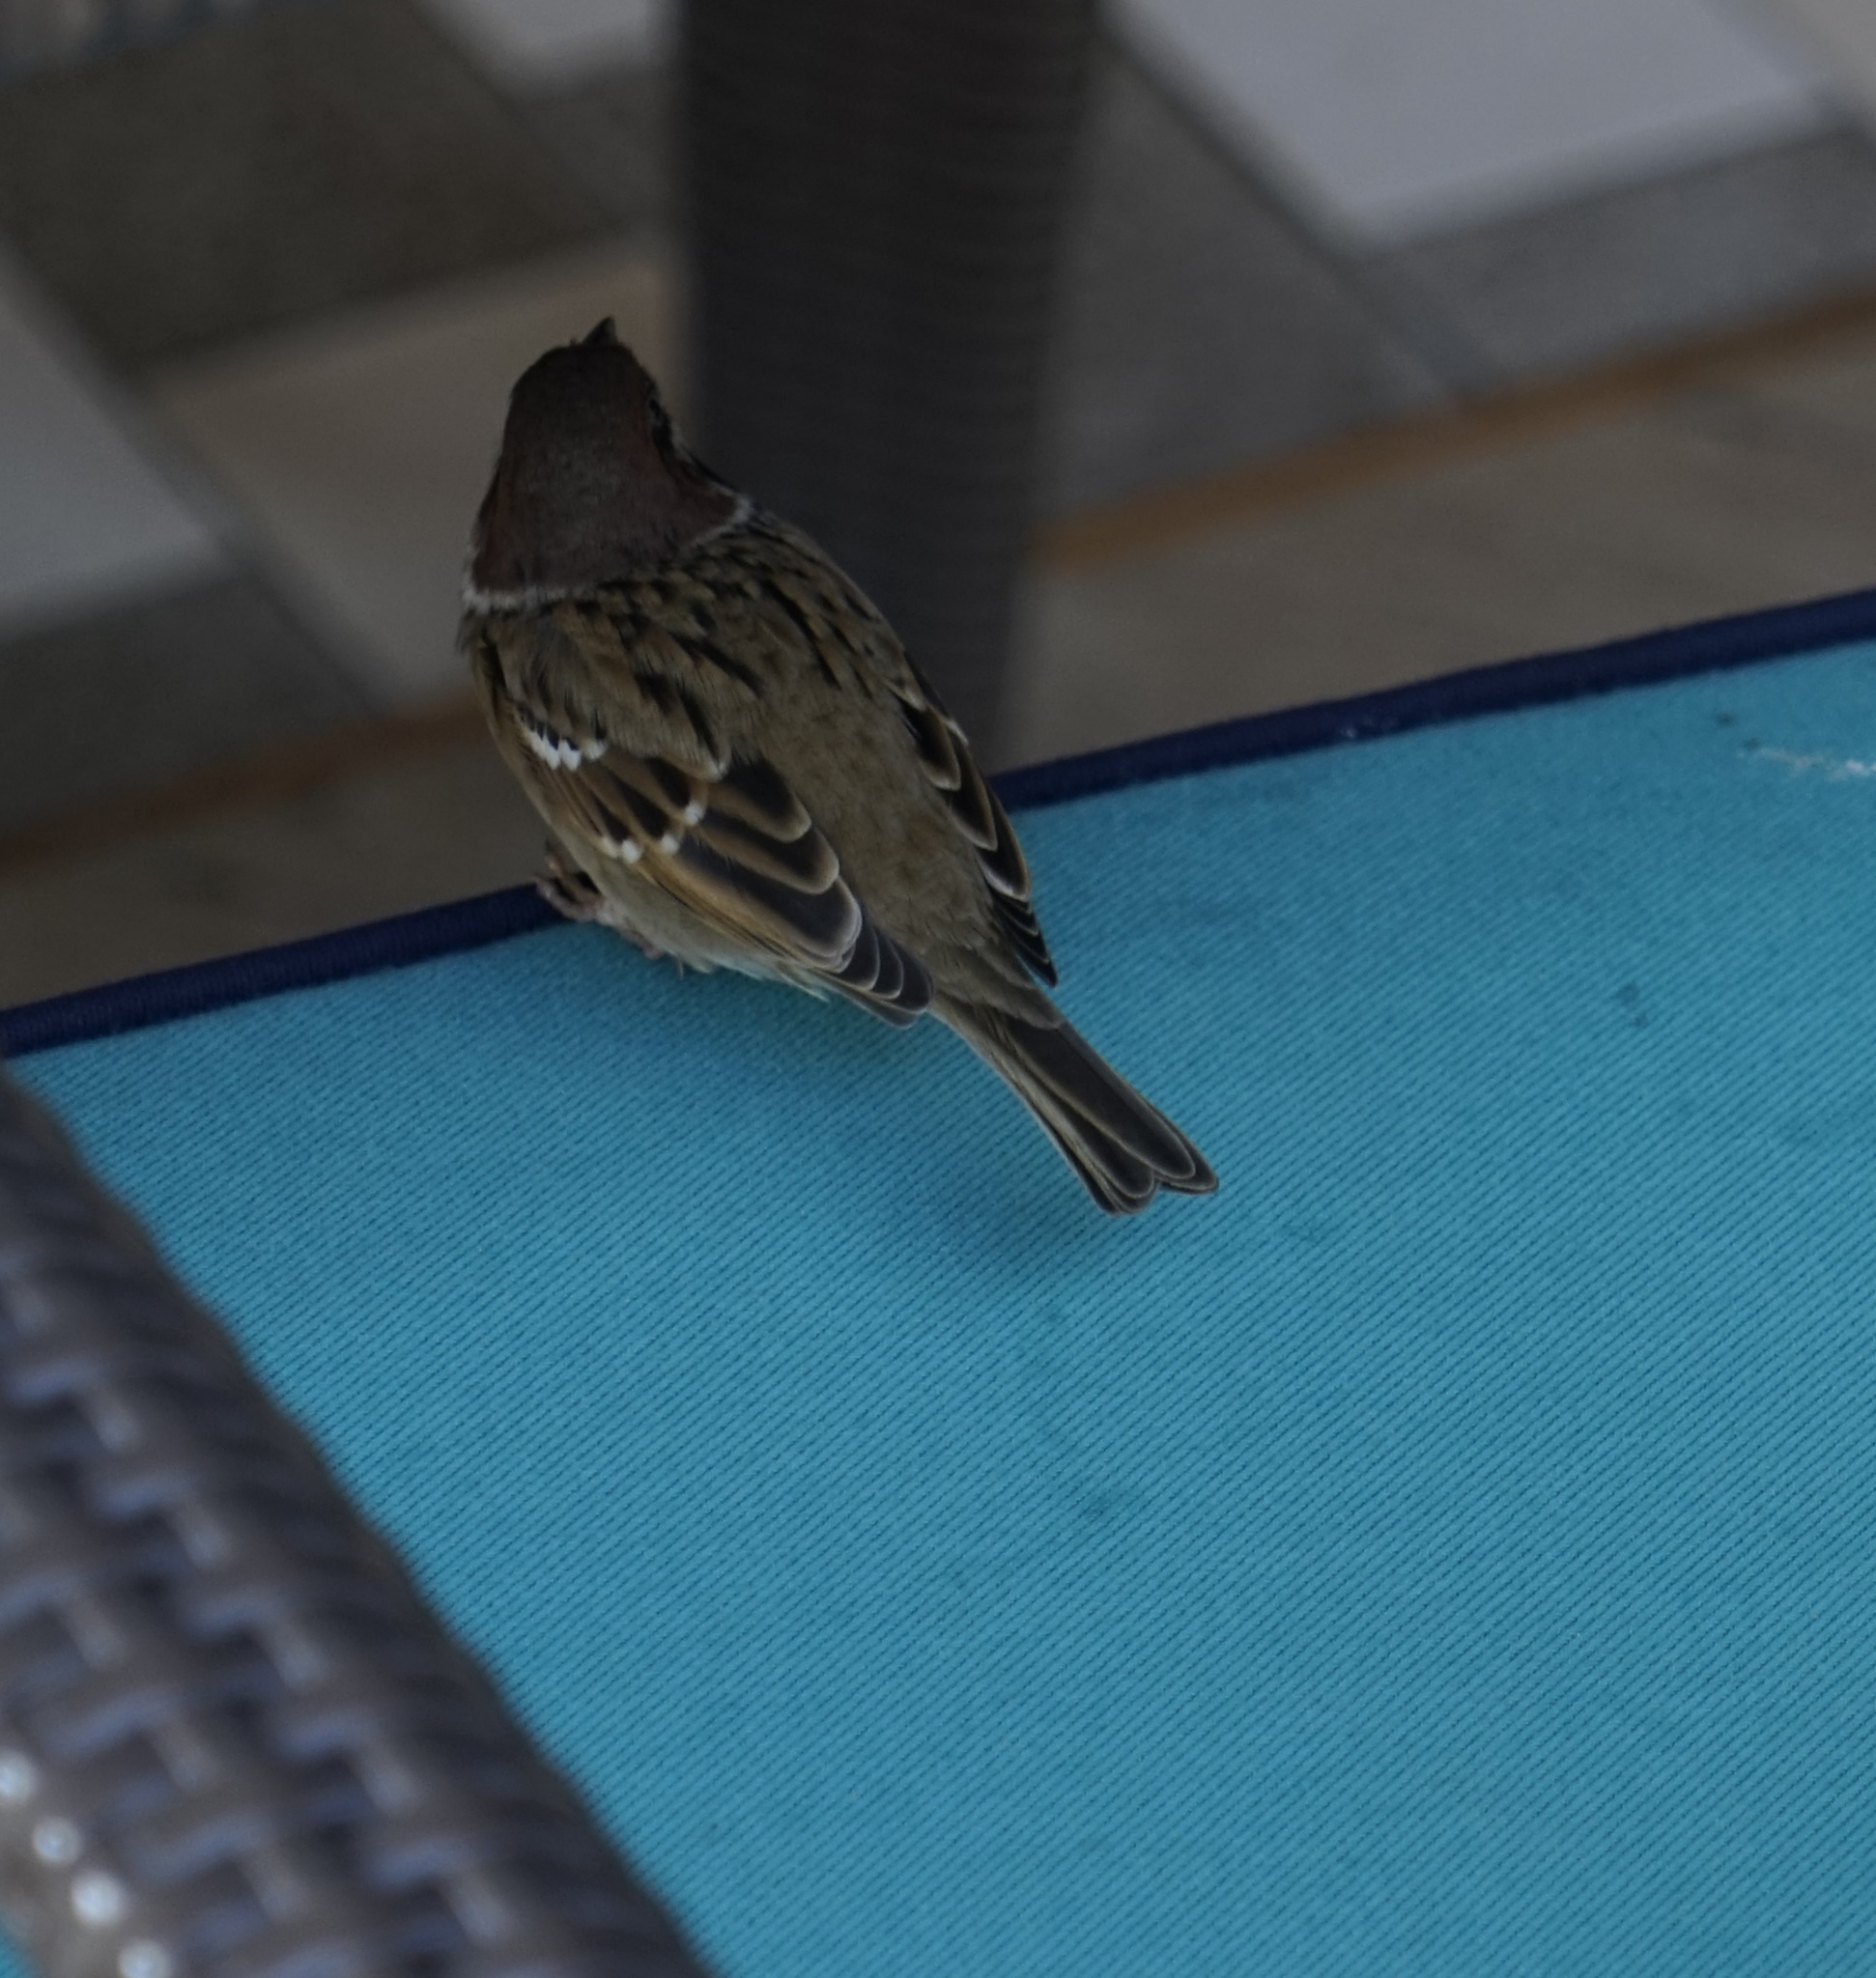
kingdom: Animalia
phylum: Chordata
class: Aves
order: Passeriformes
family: Passeridae
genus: Passer
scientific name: Passer montanus
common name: Eurasian tree sparrow
